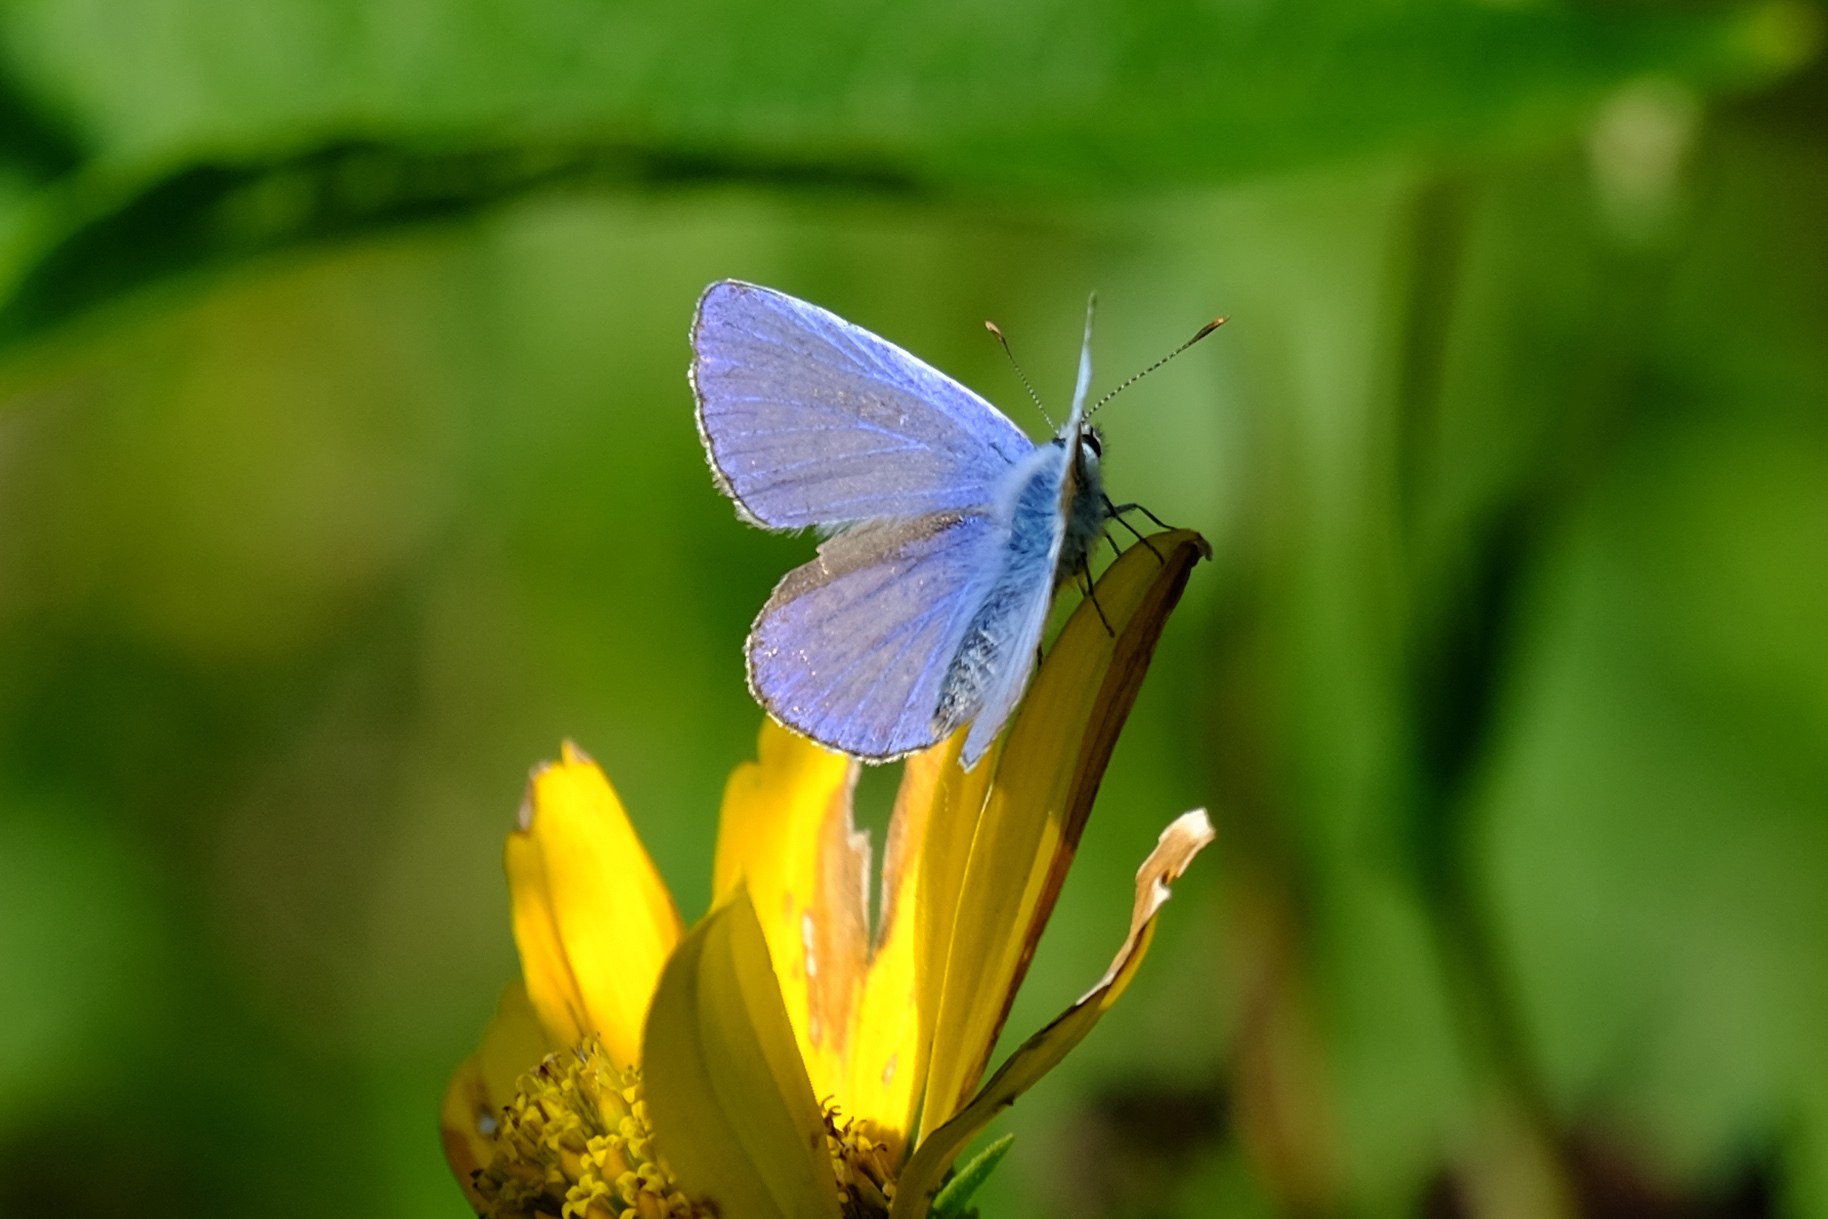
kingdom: Animalia
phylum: Arthropoda
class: Insecta
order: Lepidoptera
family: Lycaenidae
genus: Polyommatus
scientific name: Polyommatus icarus
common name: Common blue
